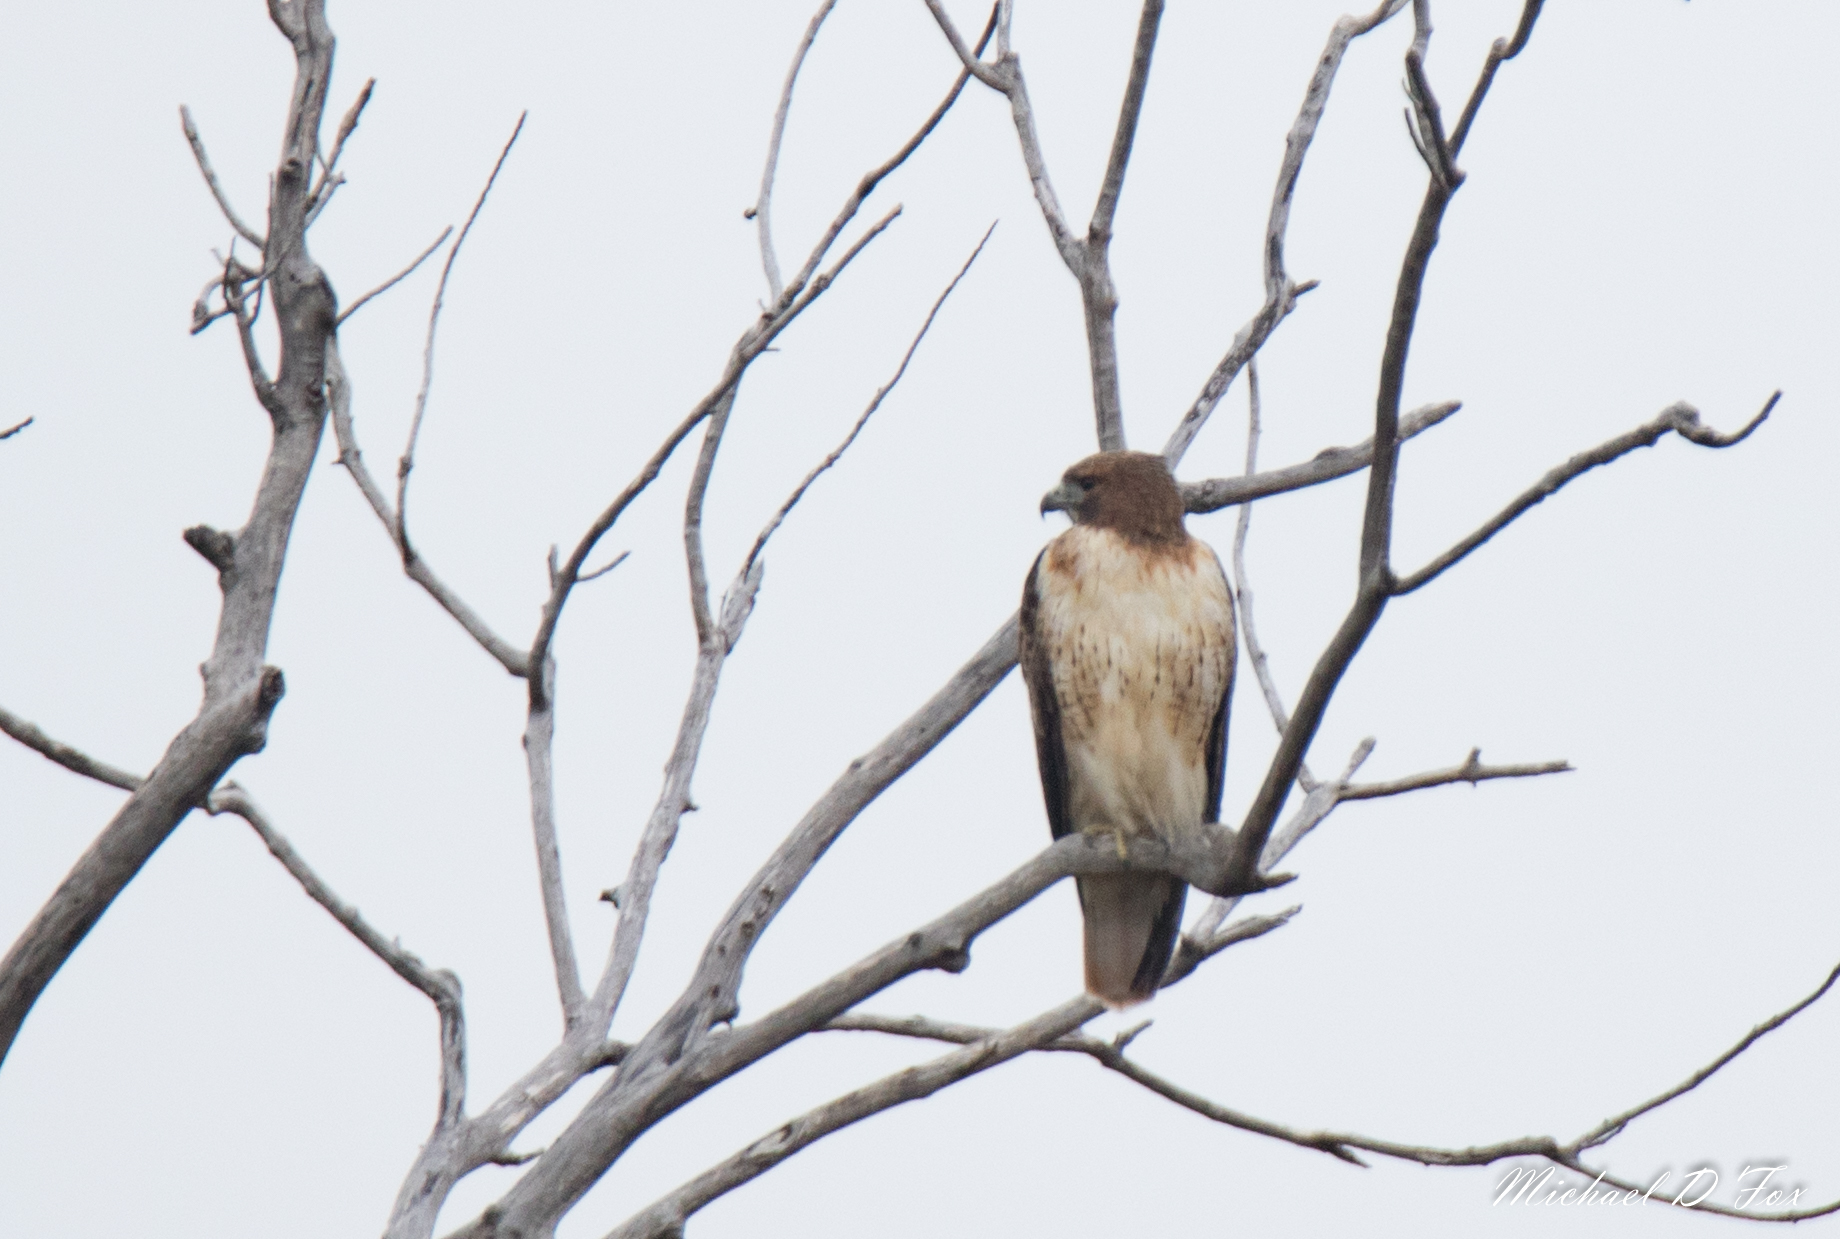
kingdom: Animalia
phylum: Chordata
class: Aves
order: Accipitriformes
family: Accipitridae
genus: Buteo
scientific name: Buteo jamaicensis
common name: Red-tailed hawk
